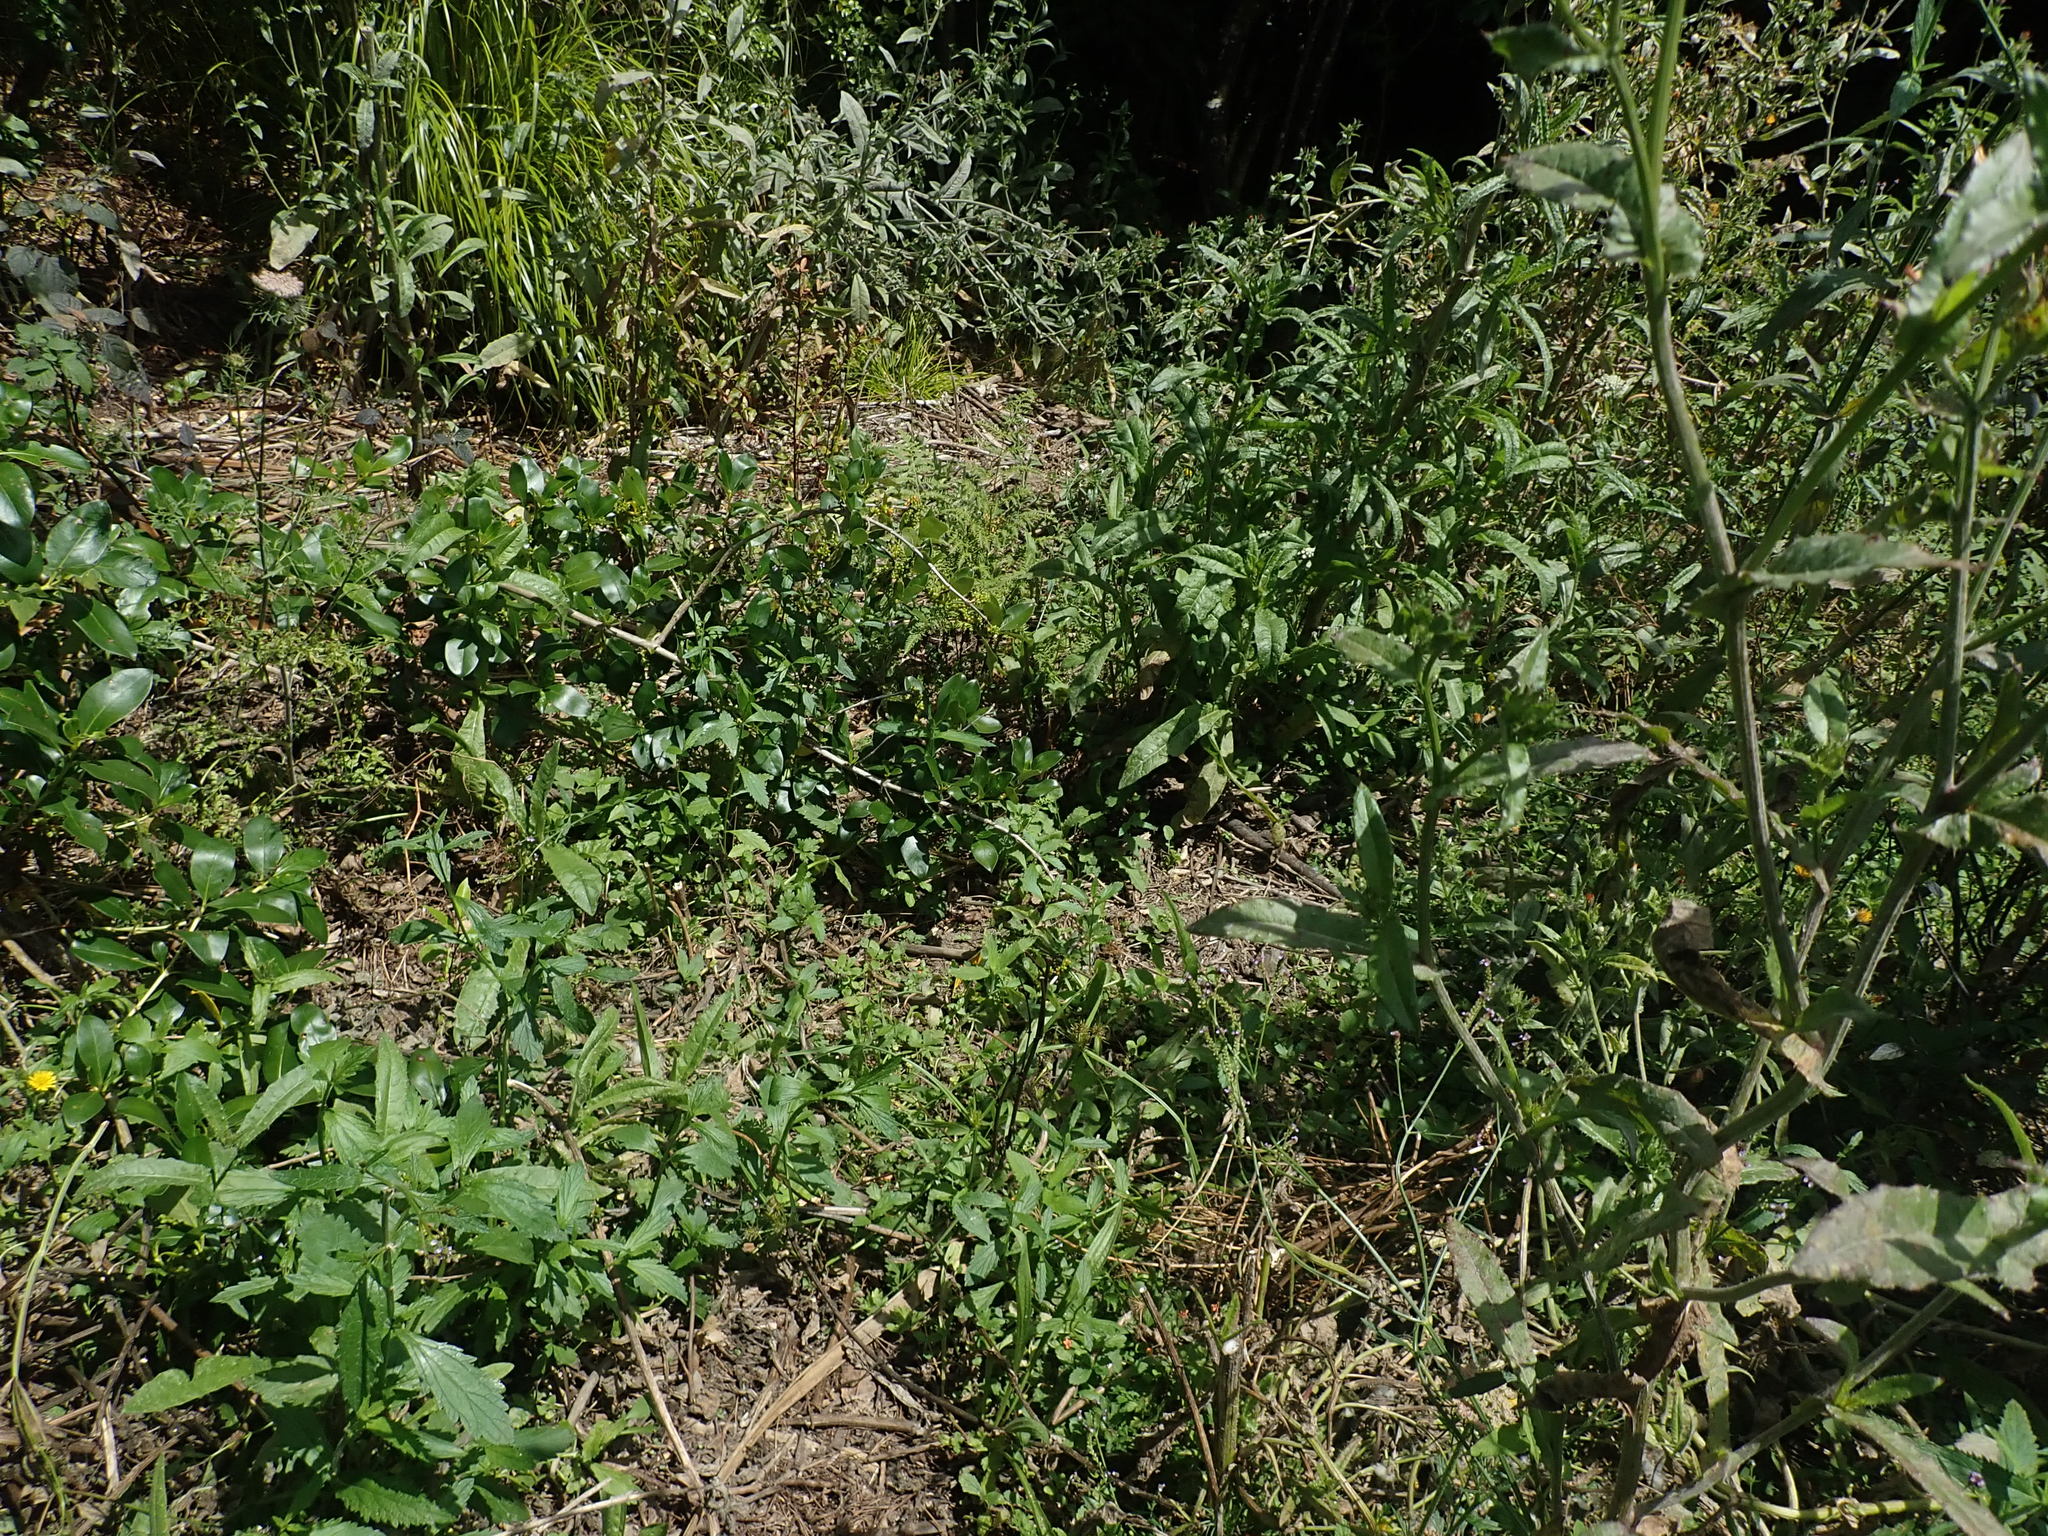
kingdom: Plantae
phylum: Tracheophyta
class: Magnoliopsida
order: Lamiales
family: Verbenaceae
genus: Verbena
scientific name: Verbena litoralis
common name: Seashore vervain
